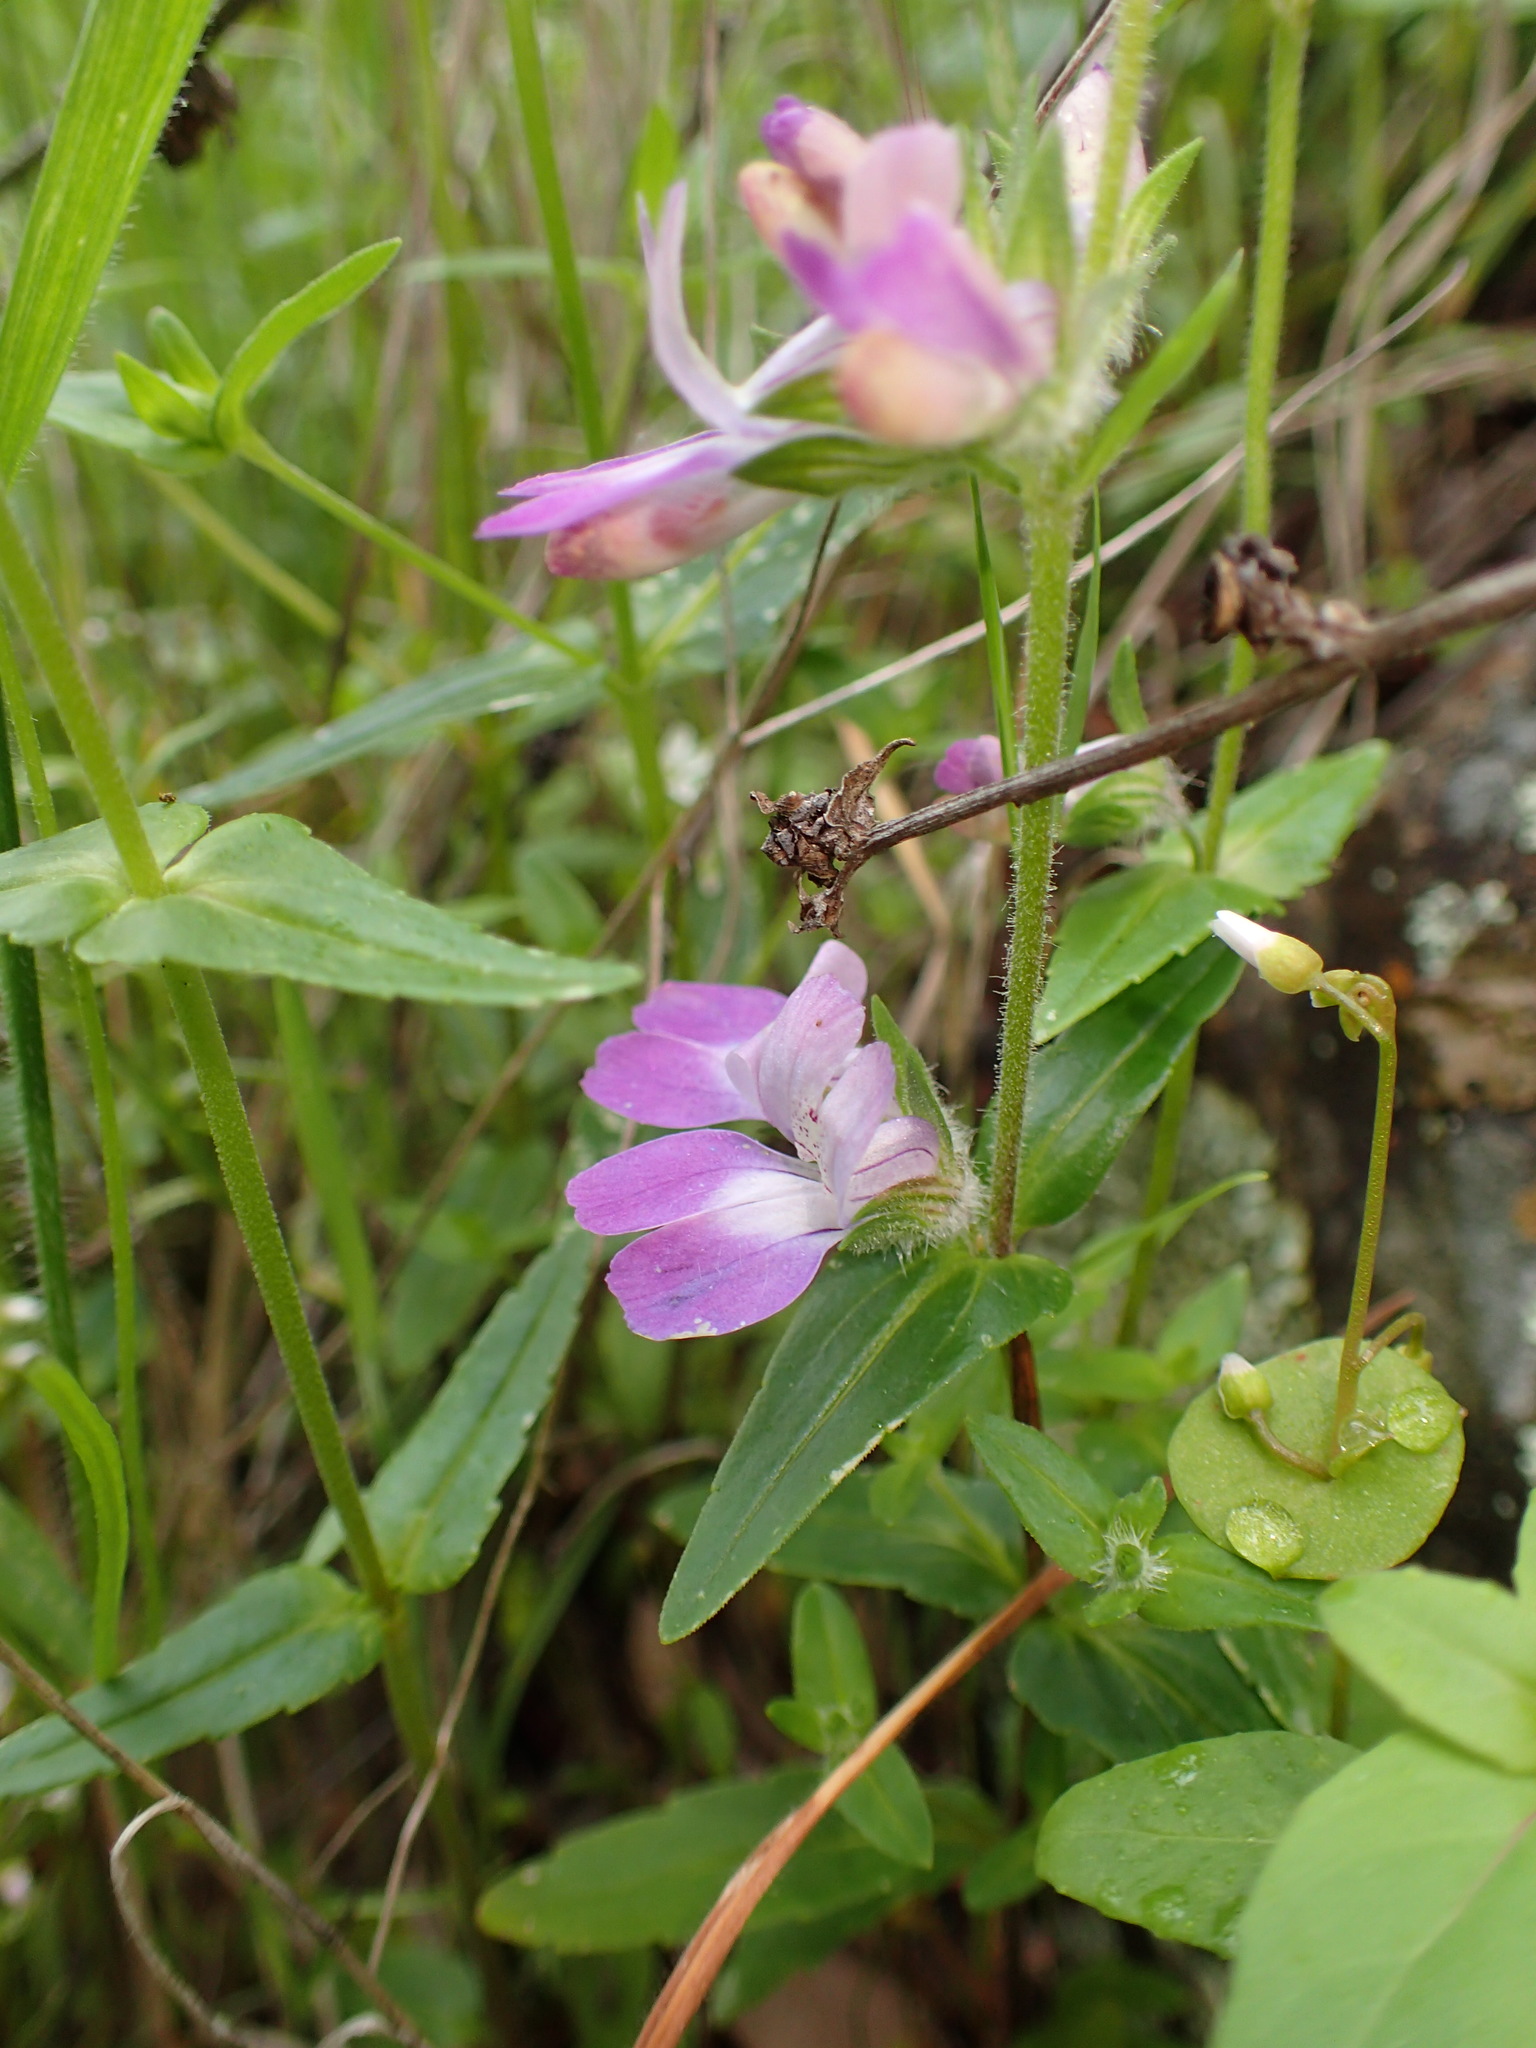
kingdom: Plantae
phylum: Tracheophyta
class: Magnoliopsida
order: Lamiales
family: Plantaginaceae
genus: Collinsia
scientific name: Collinsia heterophylla
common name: Chinese-houses
